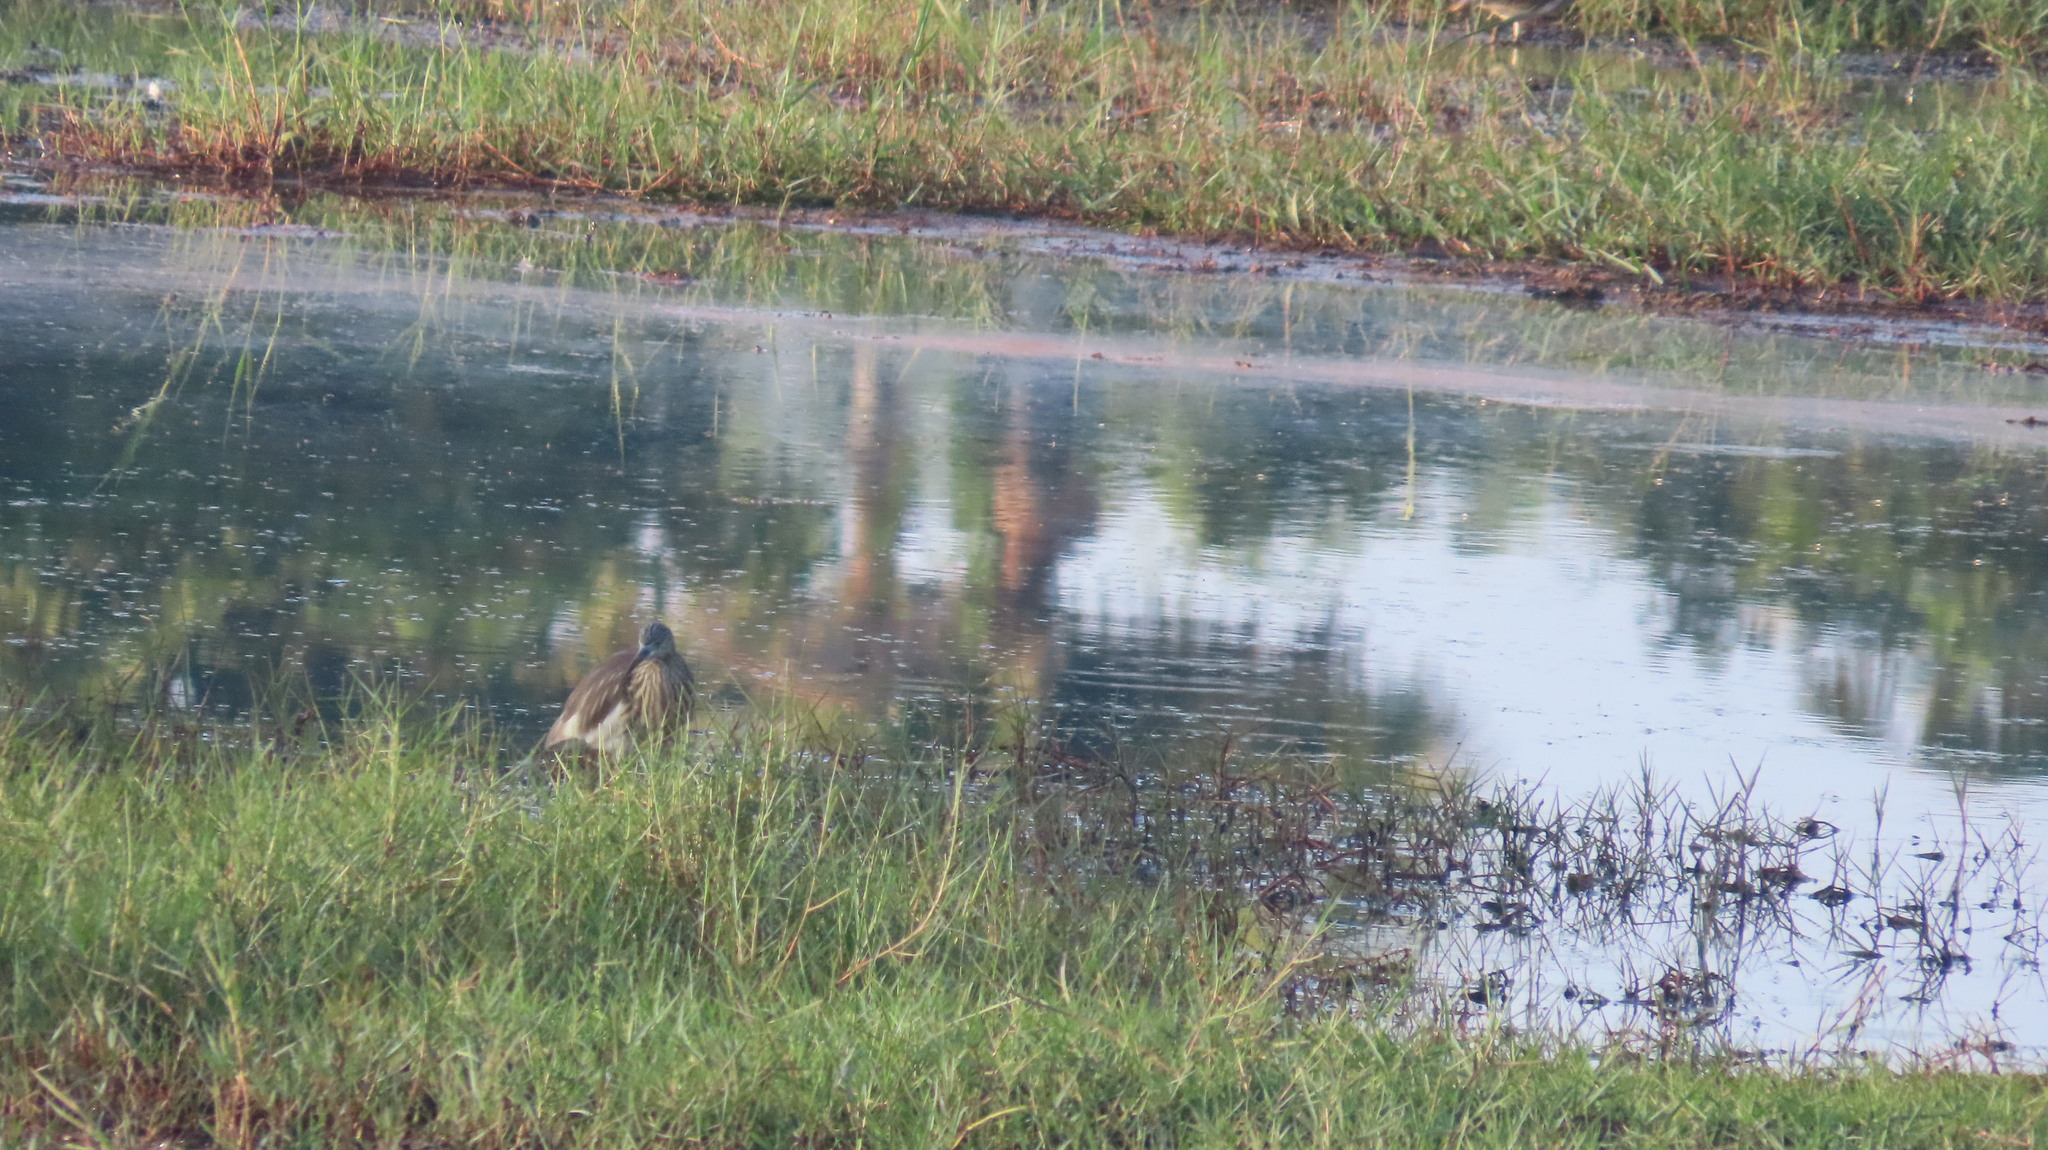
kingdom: Animalia
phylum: Chordata
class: Aves
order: Pelecaniformes
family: Ardeidae
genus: Ardeola
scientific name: Ardeola grayii
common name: Indian pond heron
